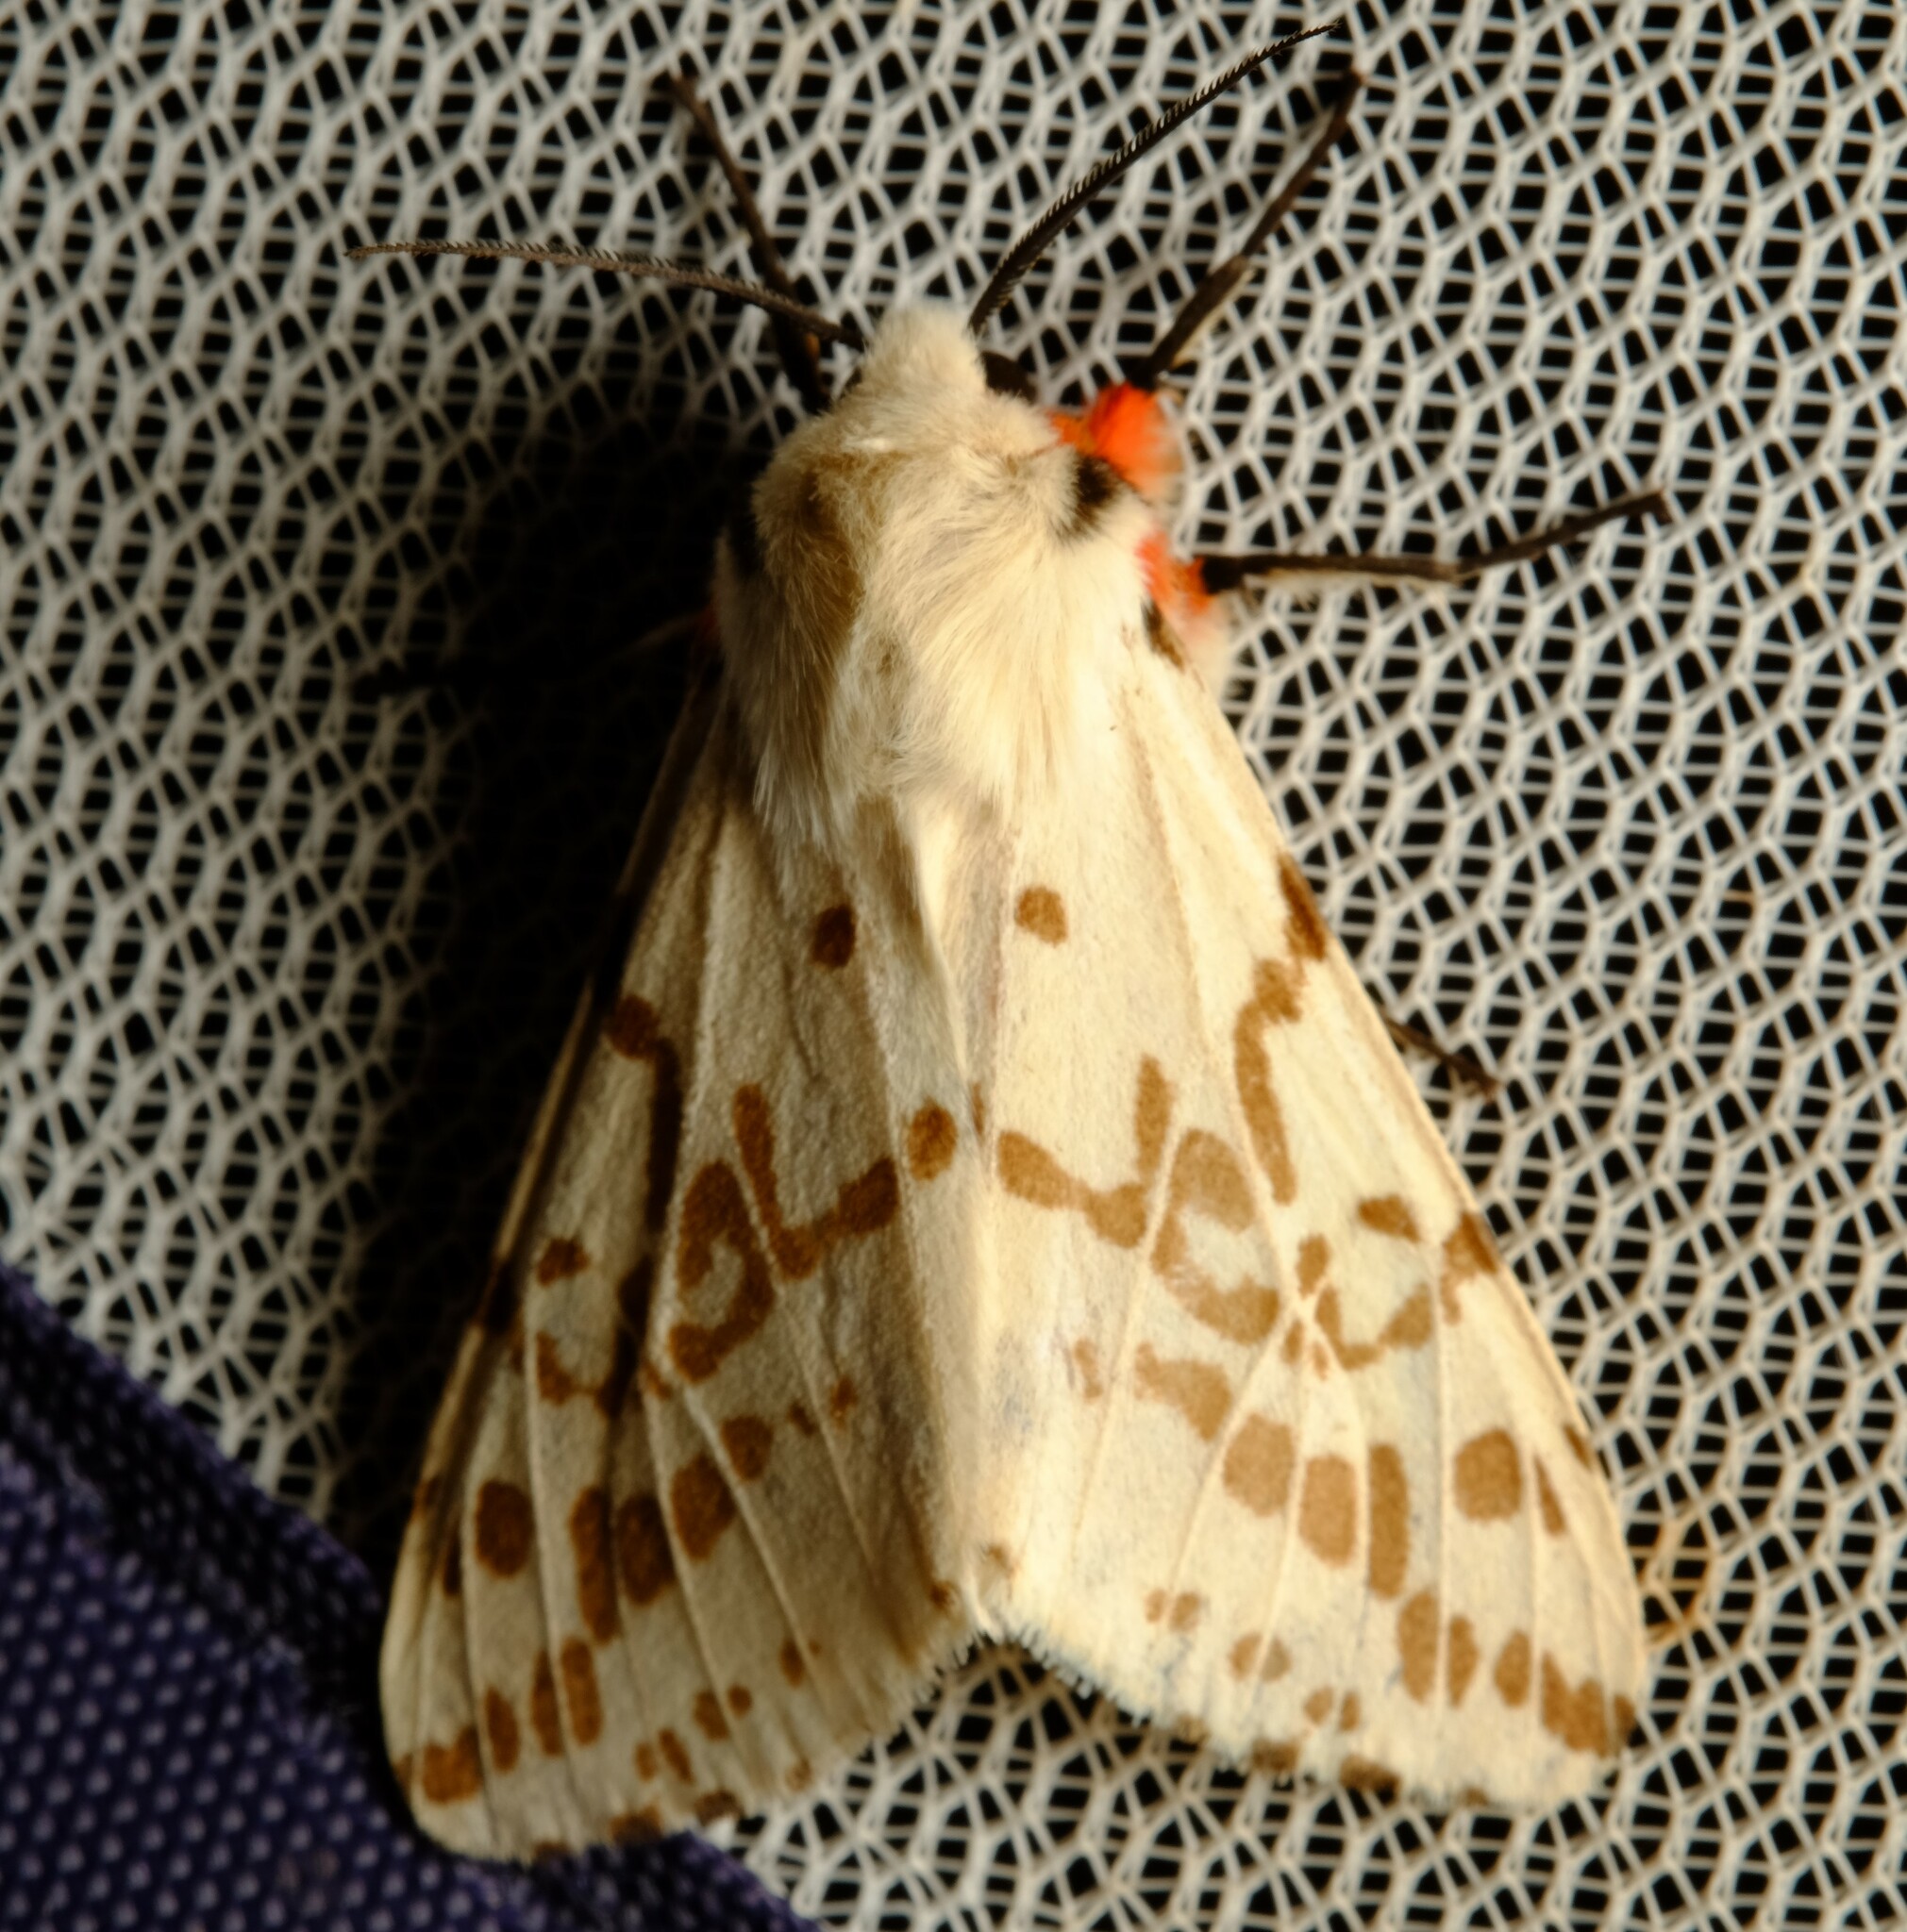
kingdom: Animalia
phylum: Arthropoda
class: Insecta
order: Lepidoptera
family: Erebidae
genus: Ardices
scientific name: Ardices canescens
